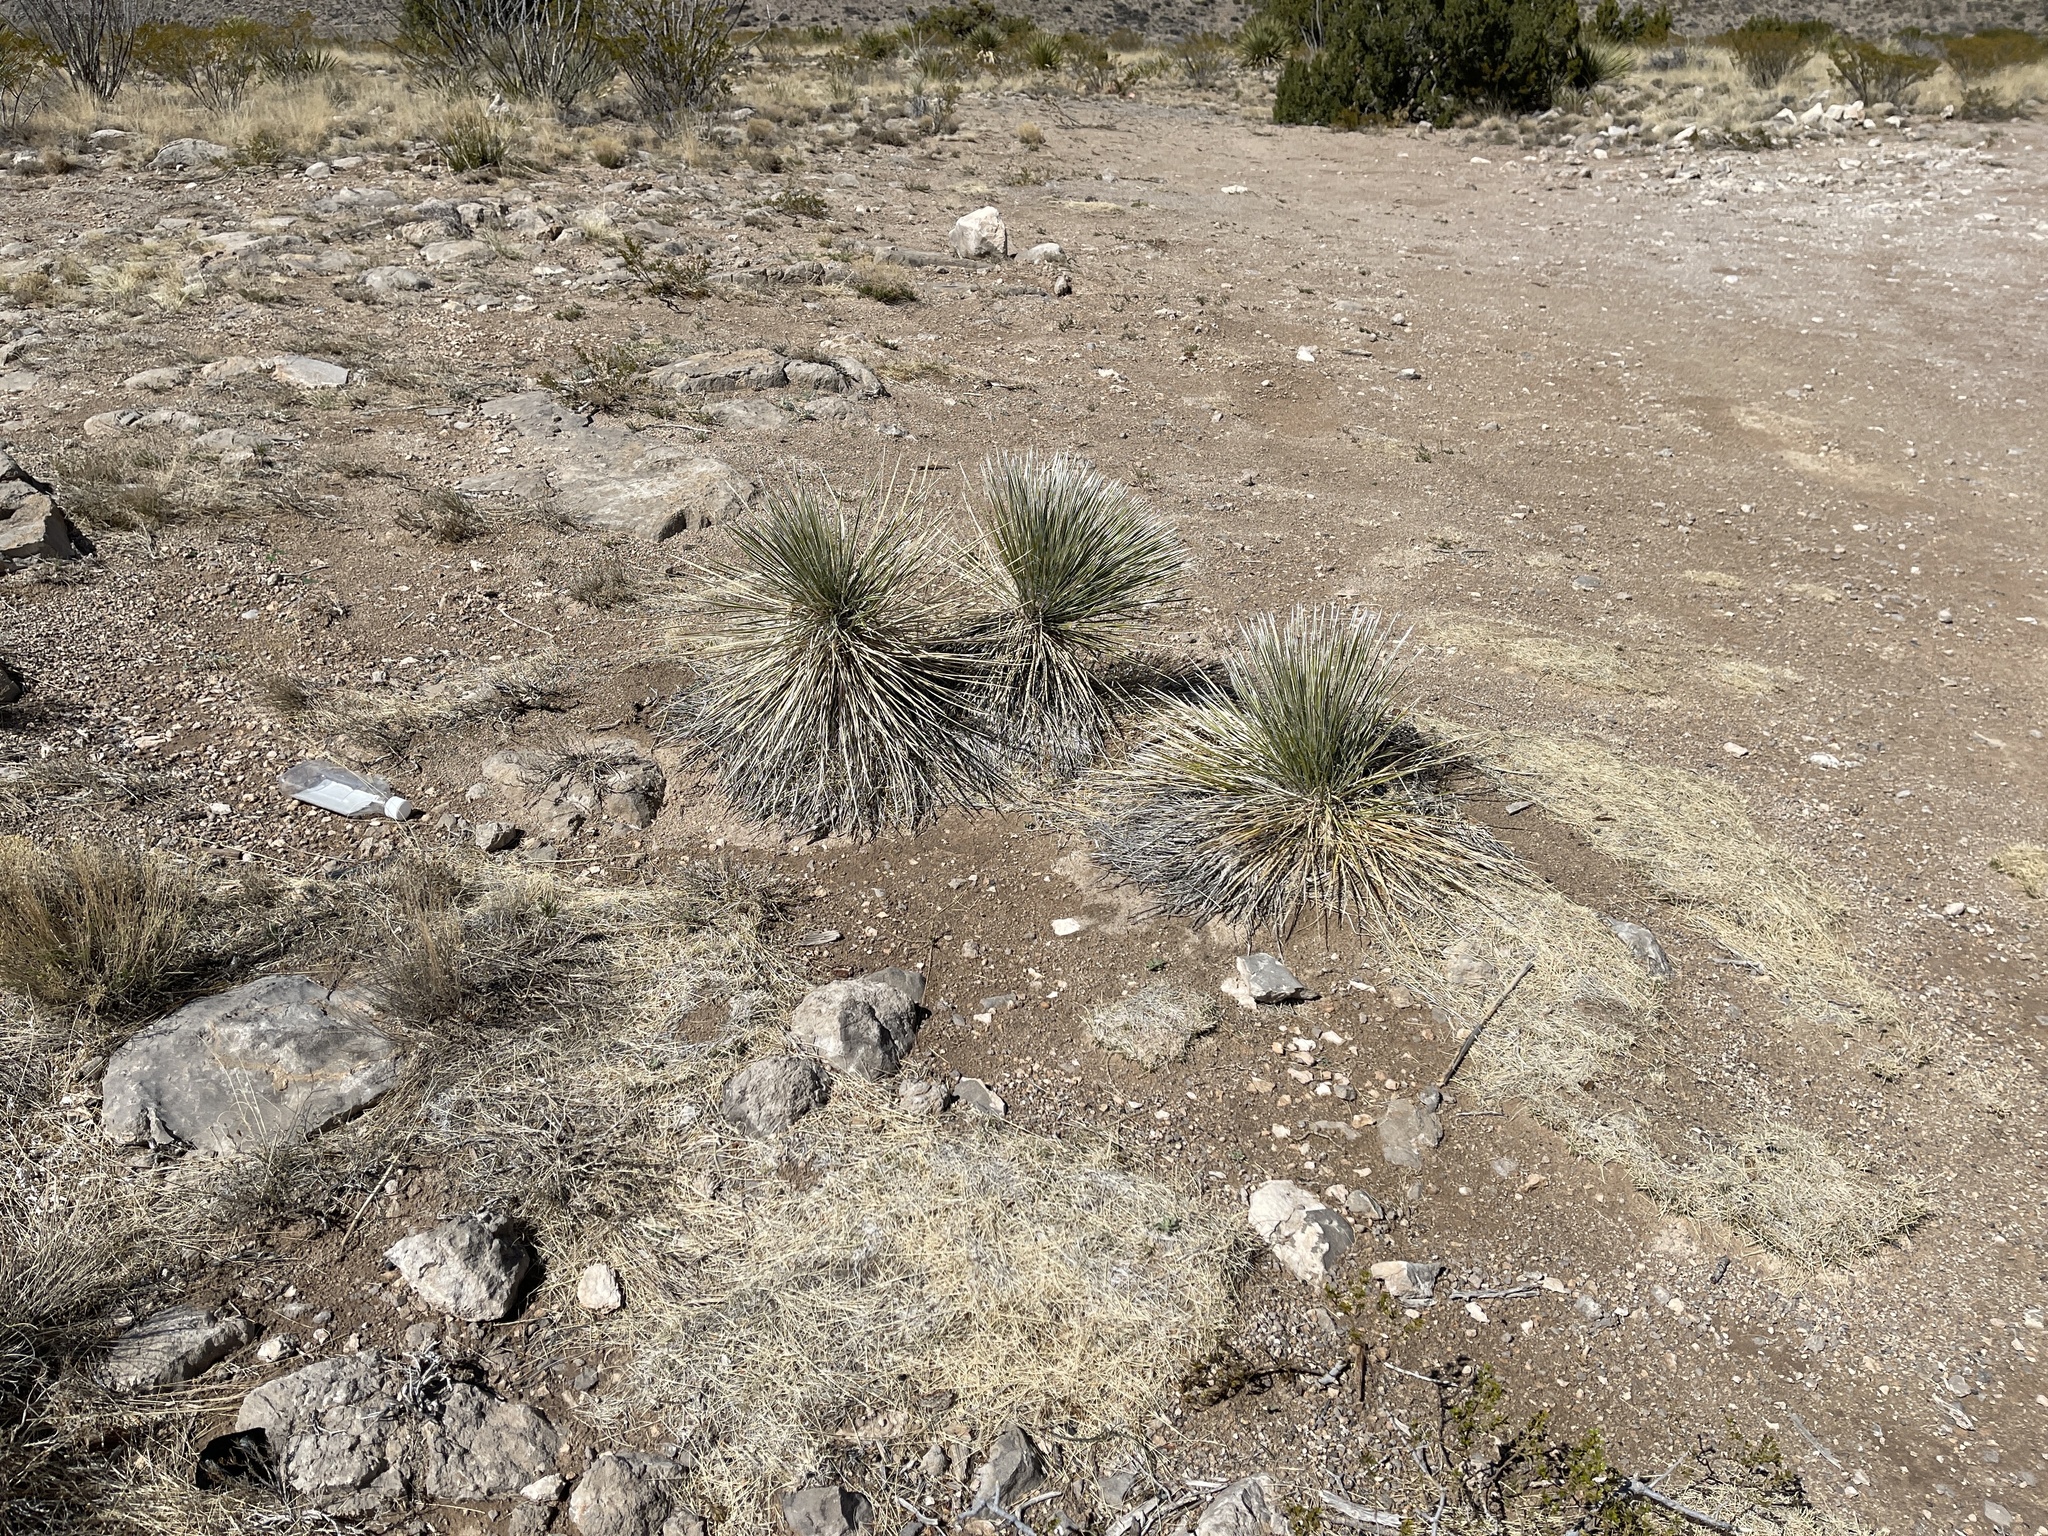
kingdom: Plantae
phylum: Tracheophyta
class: Liliopsida
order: Asparagales
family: Asparagaceae
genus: Yucca
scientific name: Yucca elata
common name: Palmella
